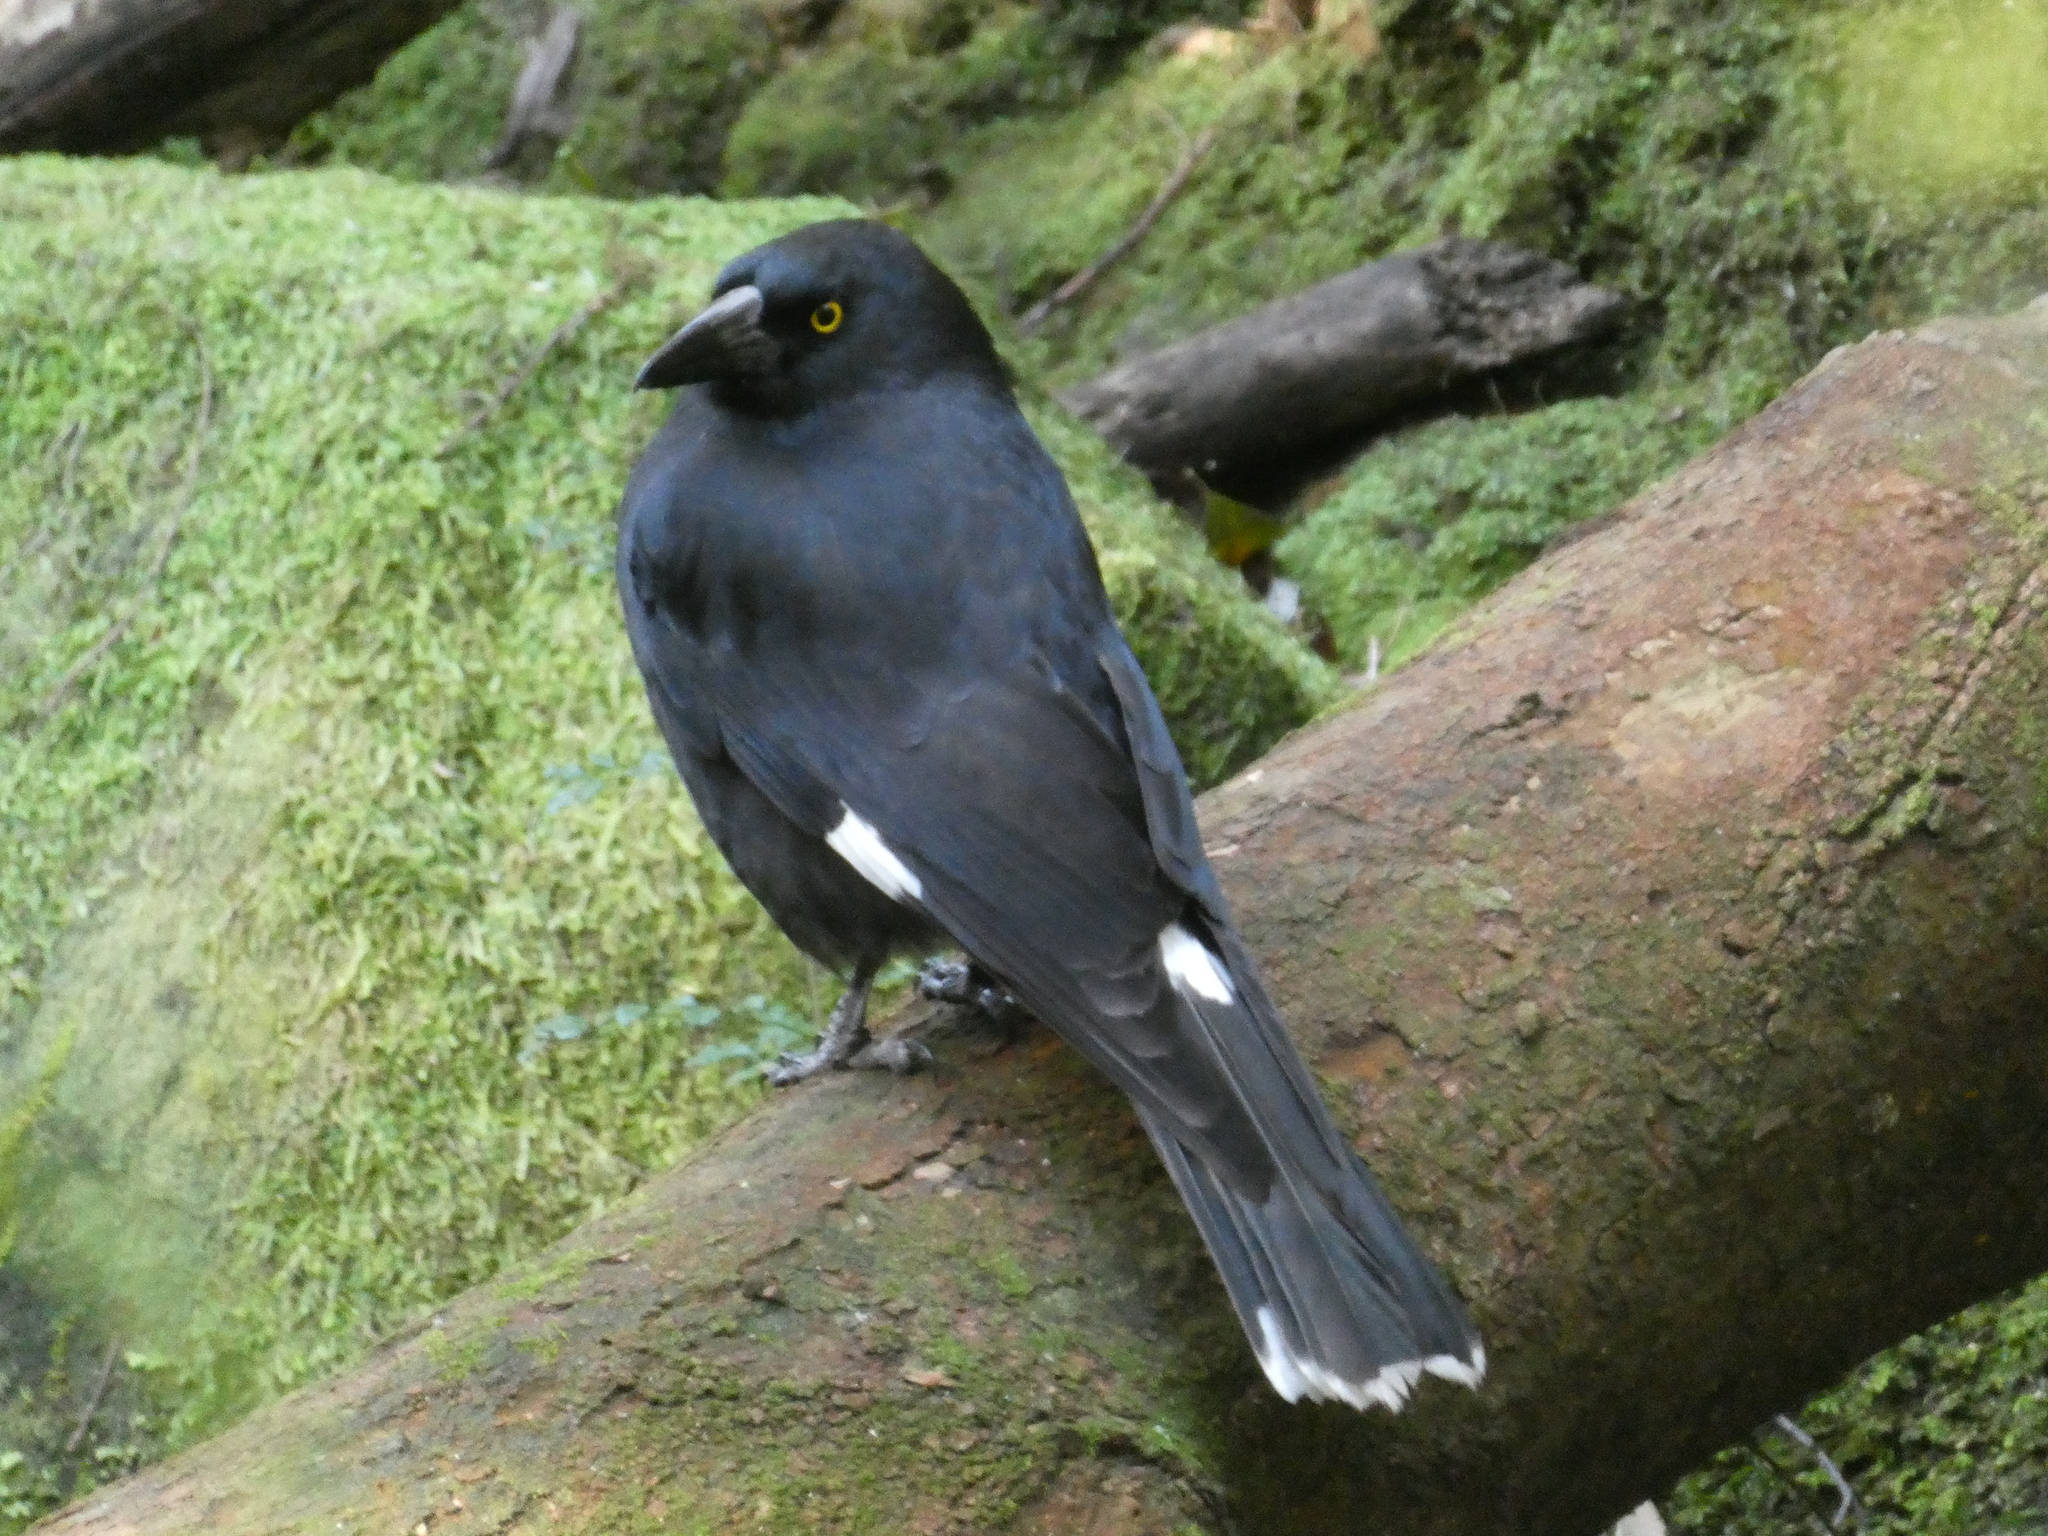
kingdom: Animalia
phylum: Chordata
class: Aves
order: Passeriformes
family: Cracticidae
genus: Strepera
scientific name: Strepera graculina
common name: Pied currawong
